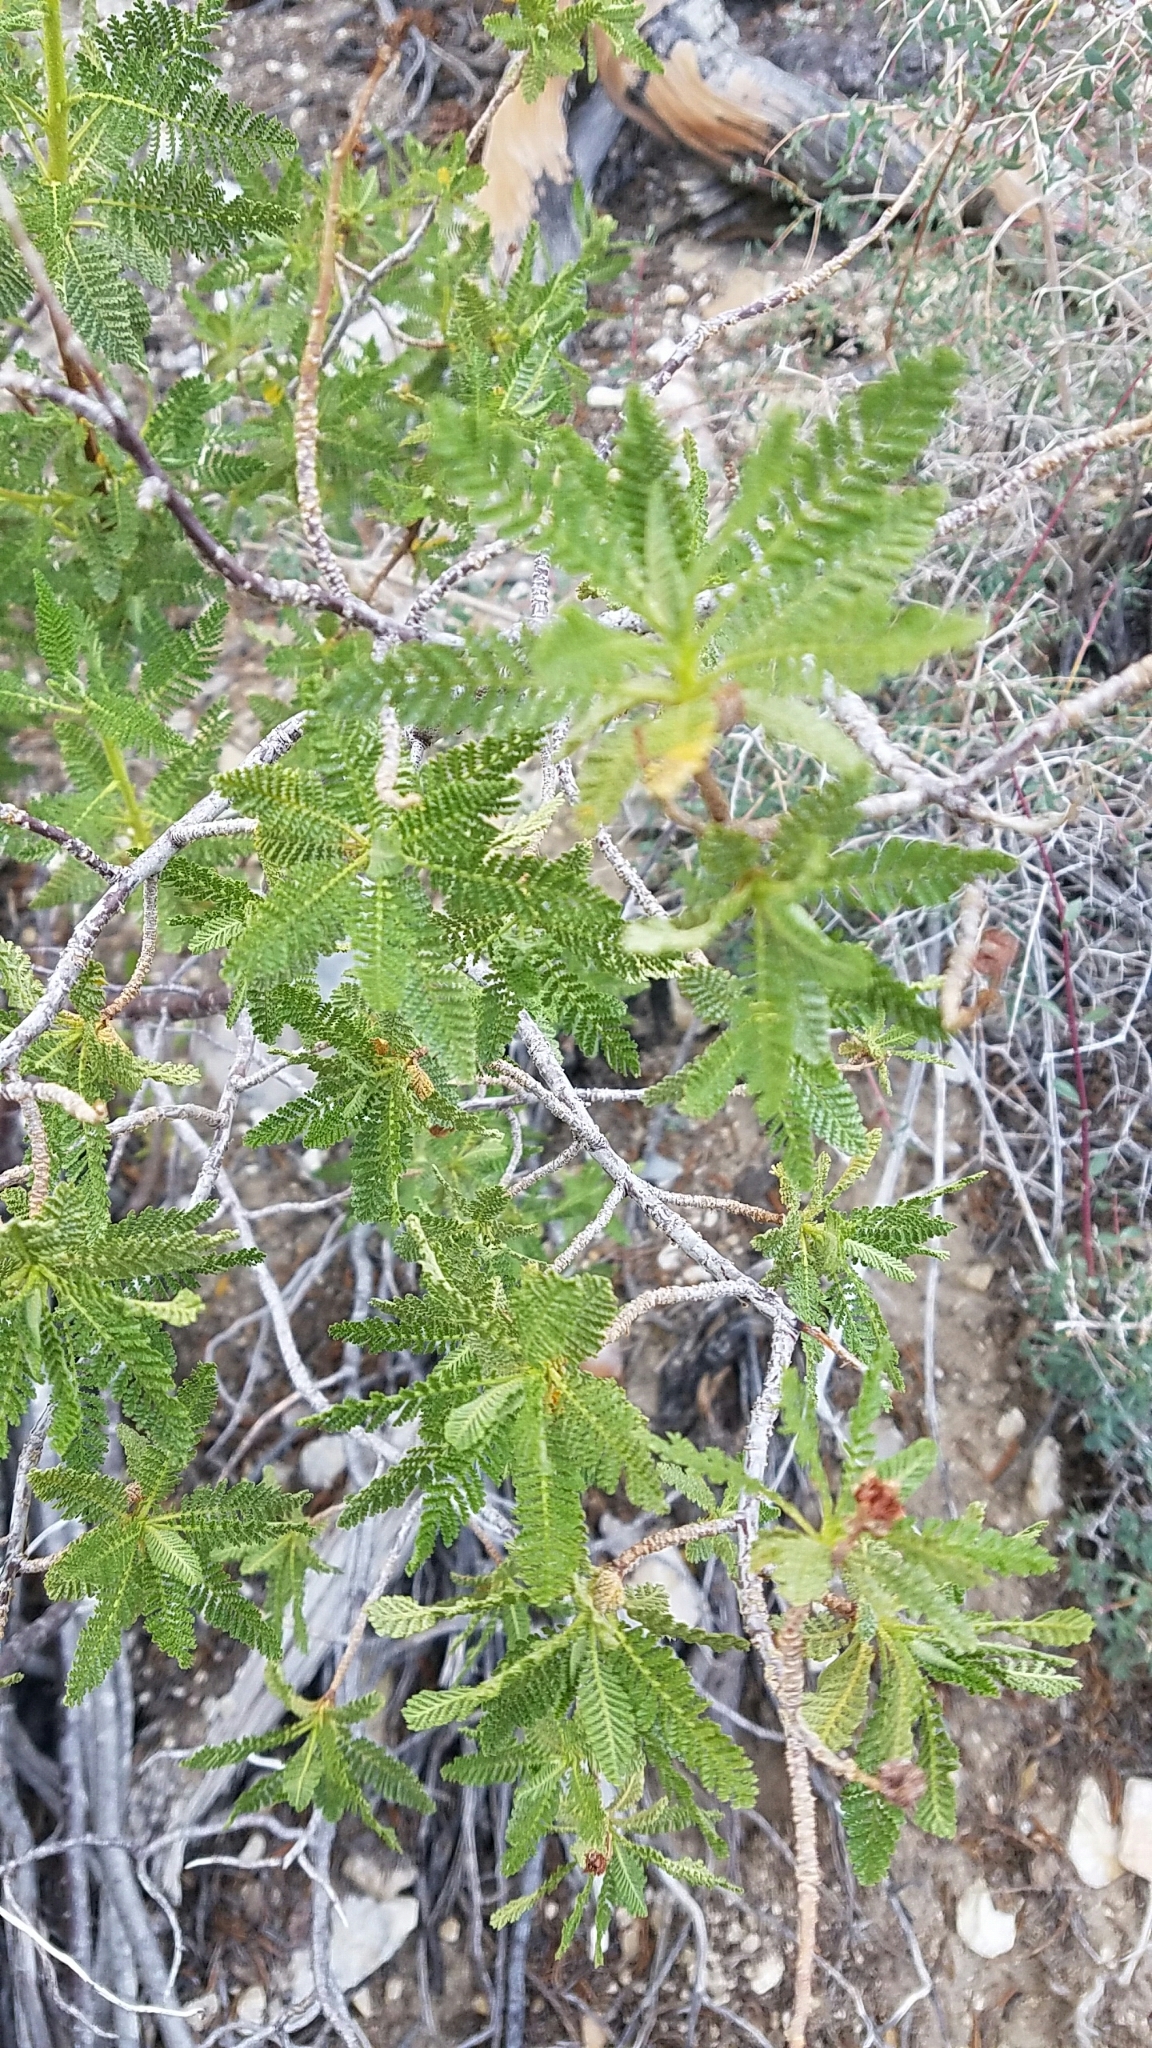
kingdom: Plantae
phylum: Tracheophyta
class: Magnoliopsida
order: Rosales
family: Rosaceae
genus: Chamaebatiaria
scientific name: Chamaebatiaria millefolium
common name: Fernbush
